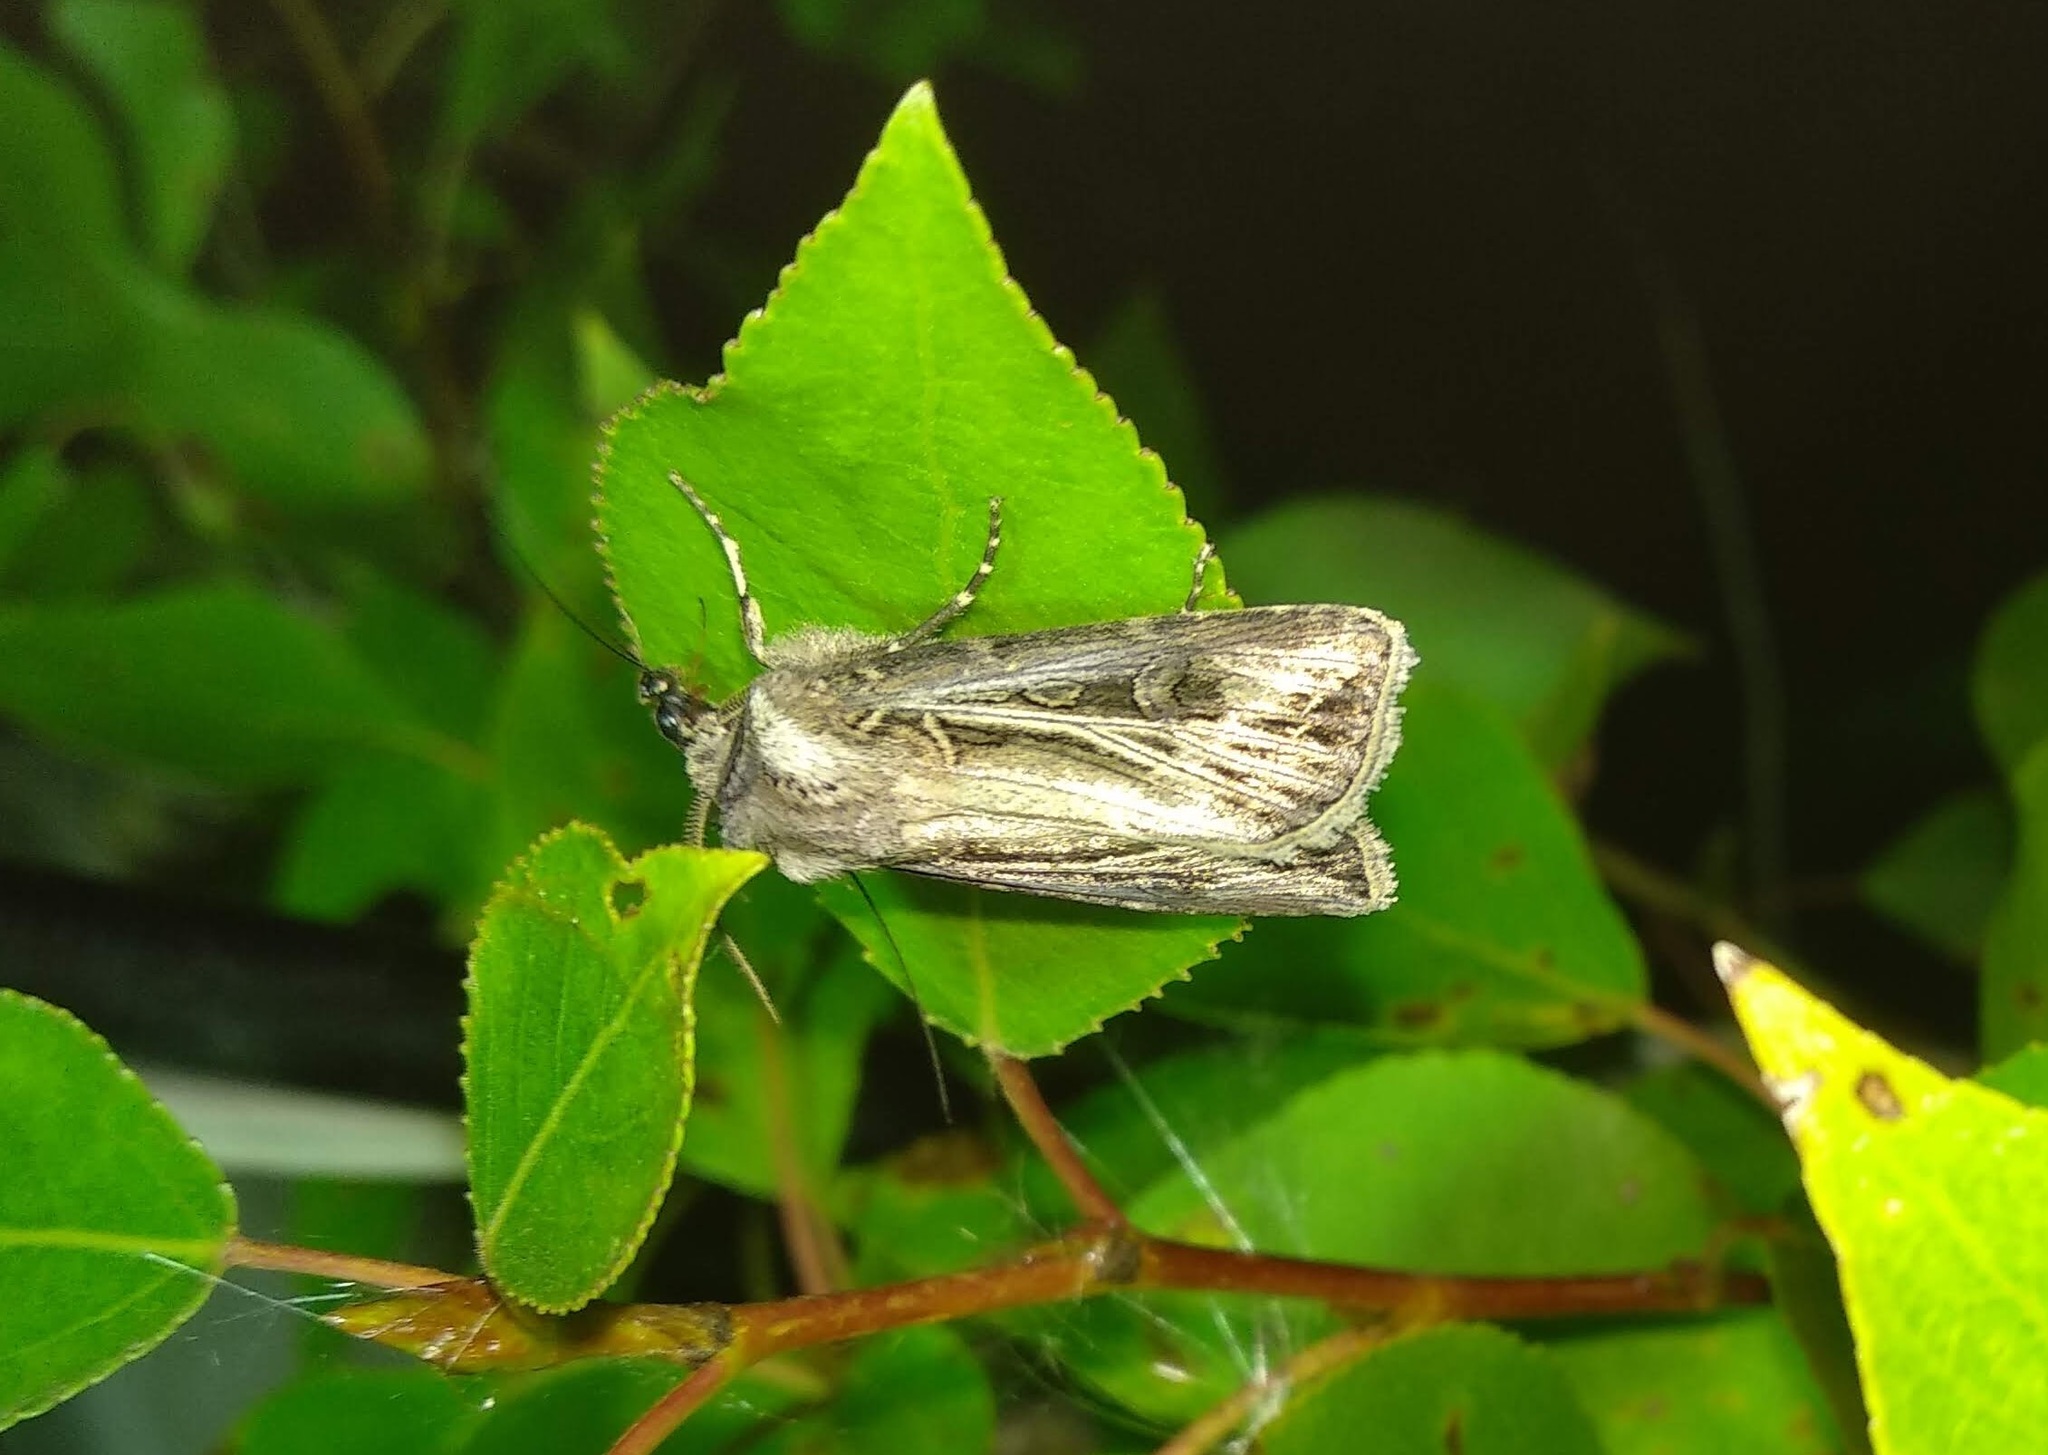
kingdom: Animalia
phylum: Arthropoda
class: Insecta
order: Lepidoptera
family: Noctuidae
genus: Agrotis
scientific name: Agrotis trifurca
